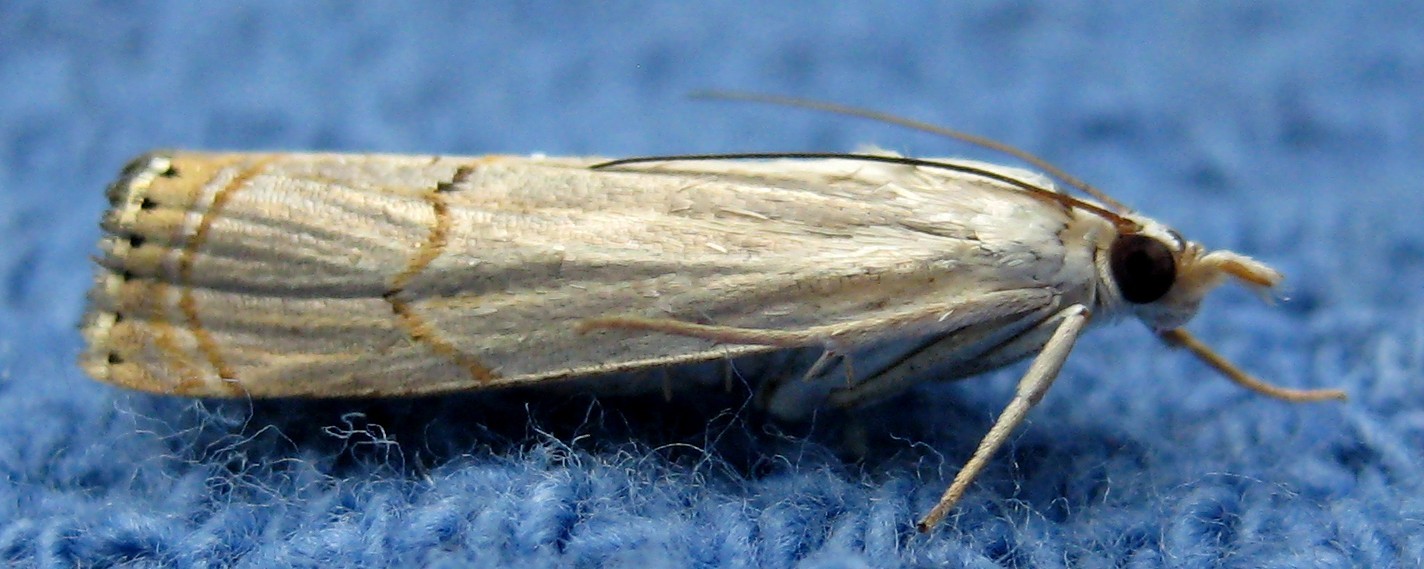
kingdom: Animalia
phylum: Arthropoda
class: Insecta
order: Lepidoptera
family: Crambidae
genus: Parapediasia
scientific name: Parapediasia decorellus
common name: Graceful grass-veneer
